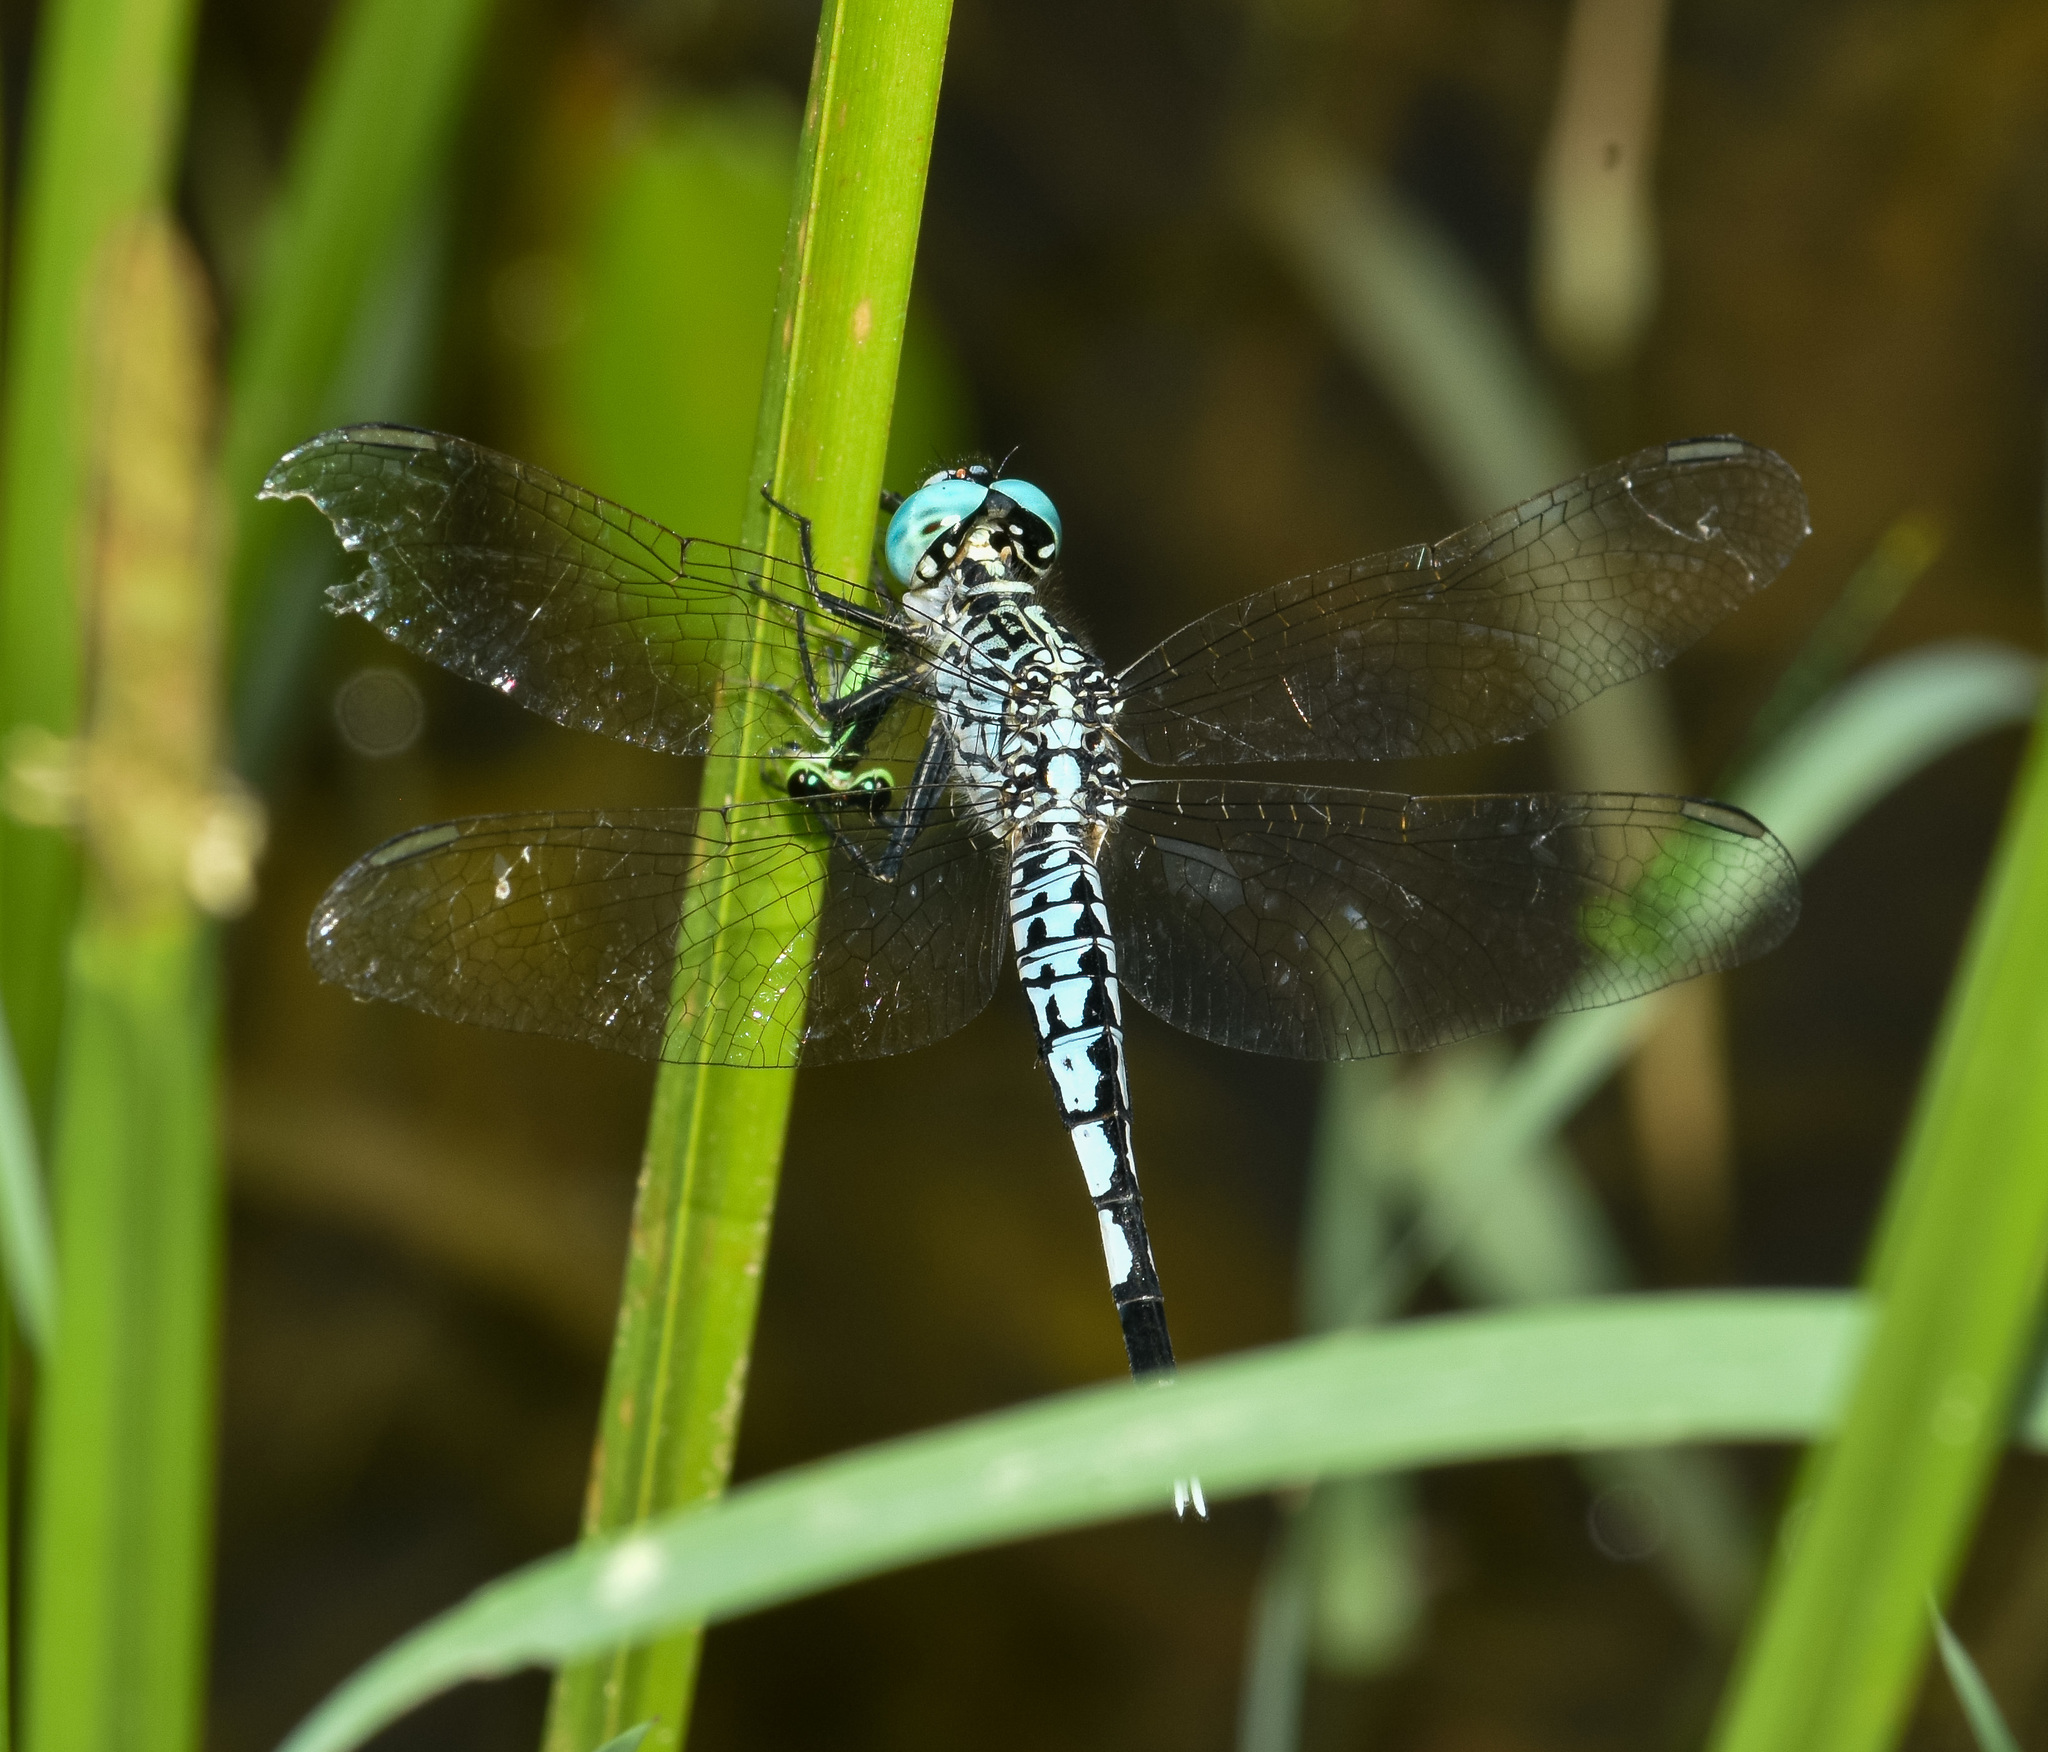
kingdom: Animalia
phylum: Arthropoda
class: Insecta
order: Odonata
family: Libellulidae
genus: Acisoma
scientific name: Acisoma panorpoides
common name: Asian pintail
